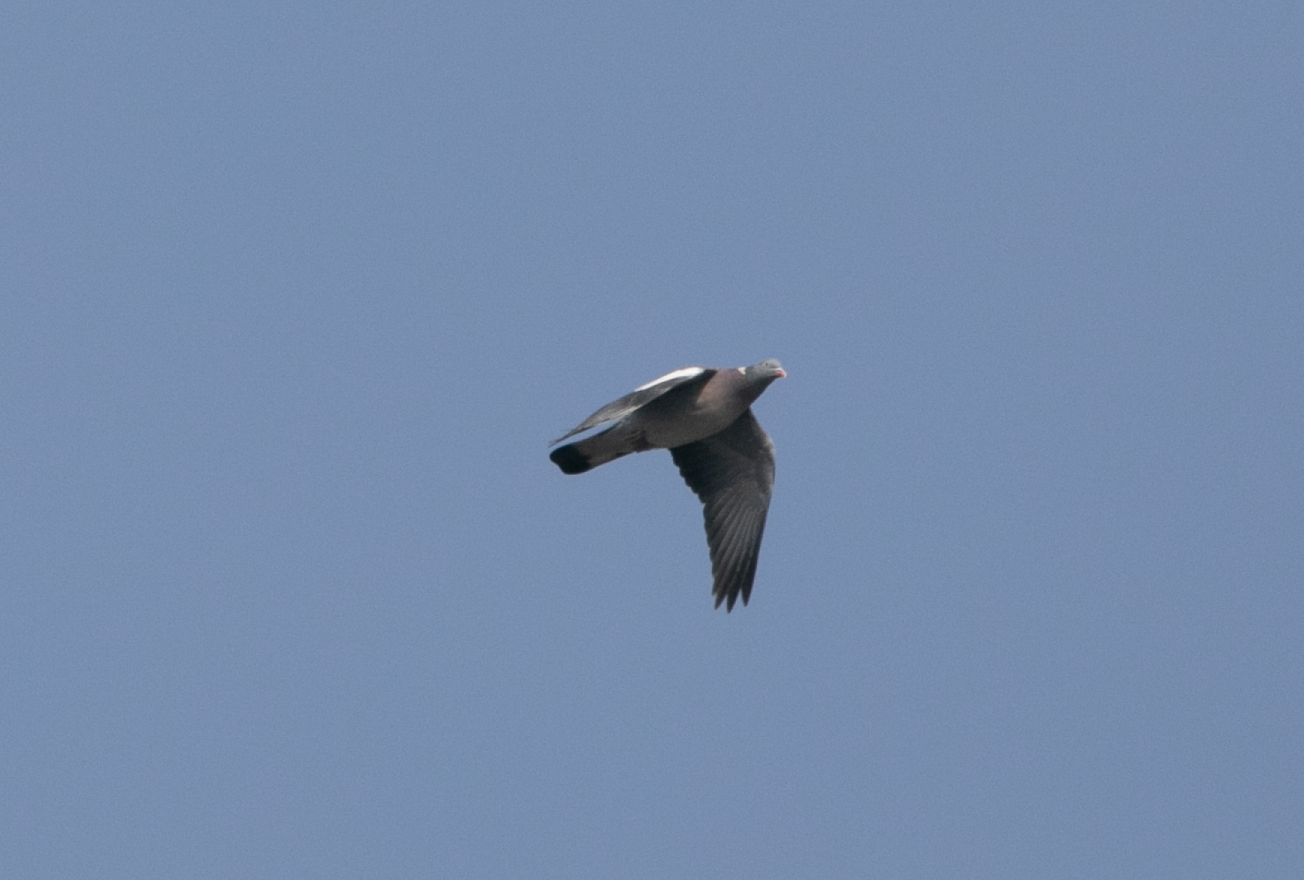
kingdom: Animalia
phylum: Chordata
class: Aves
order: Columbiformes
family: Columbidae
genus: Columba
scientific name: Columba palumbus
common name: Common wood pigeon
